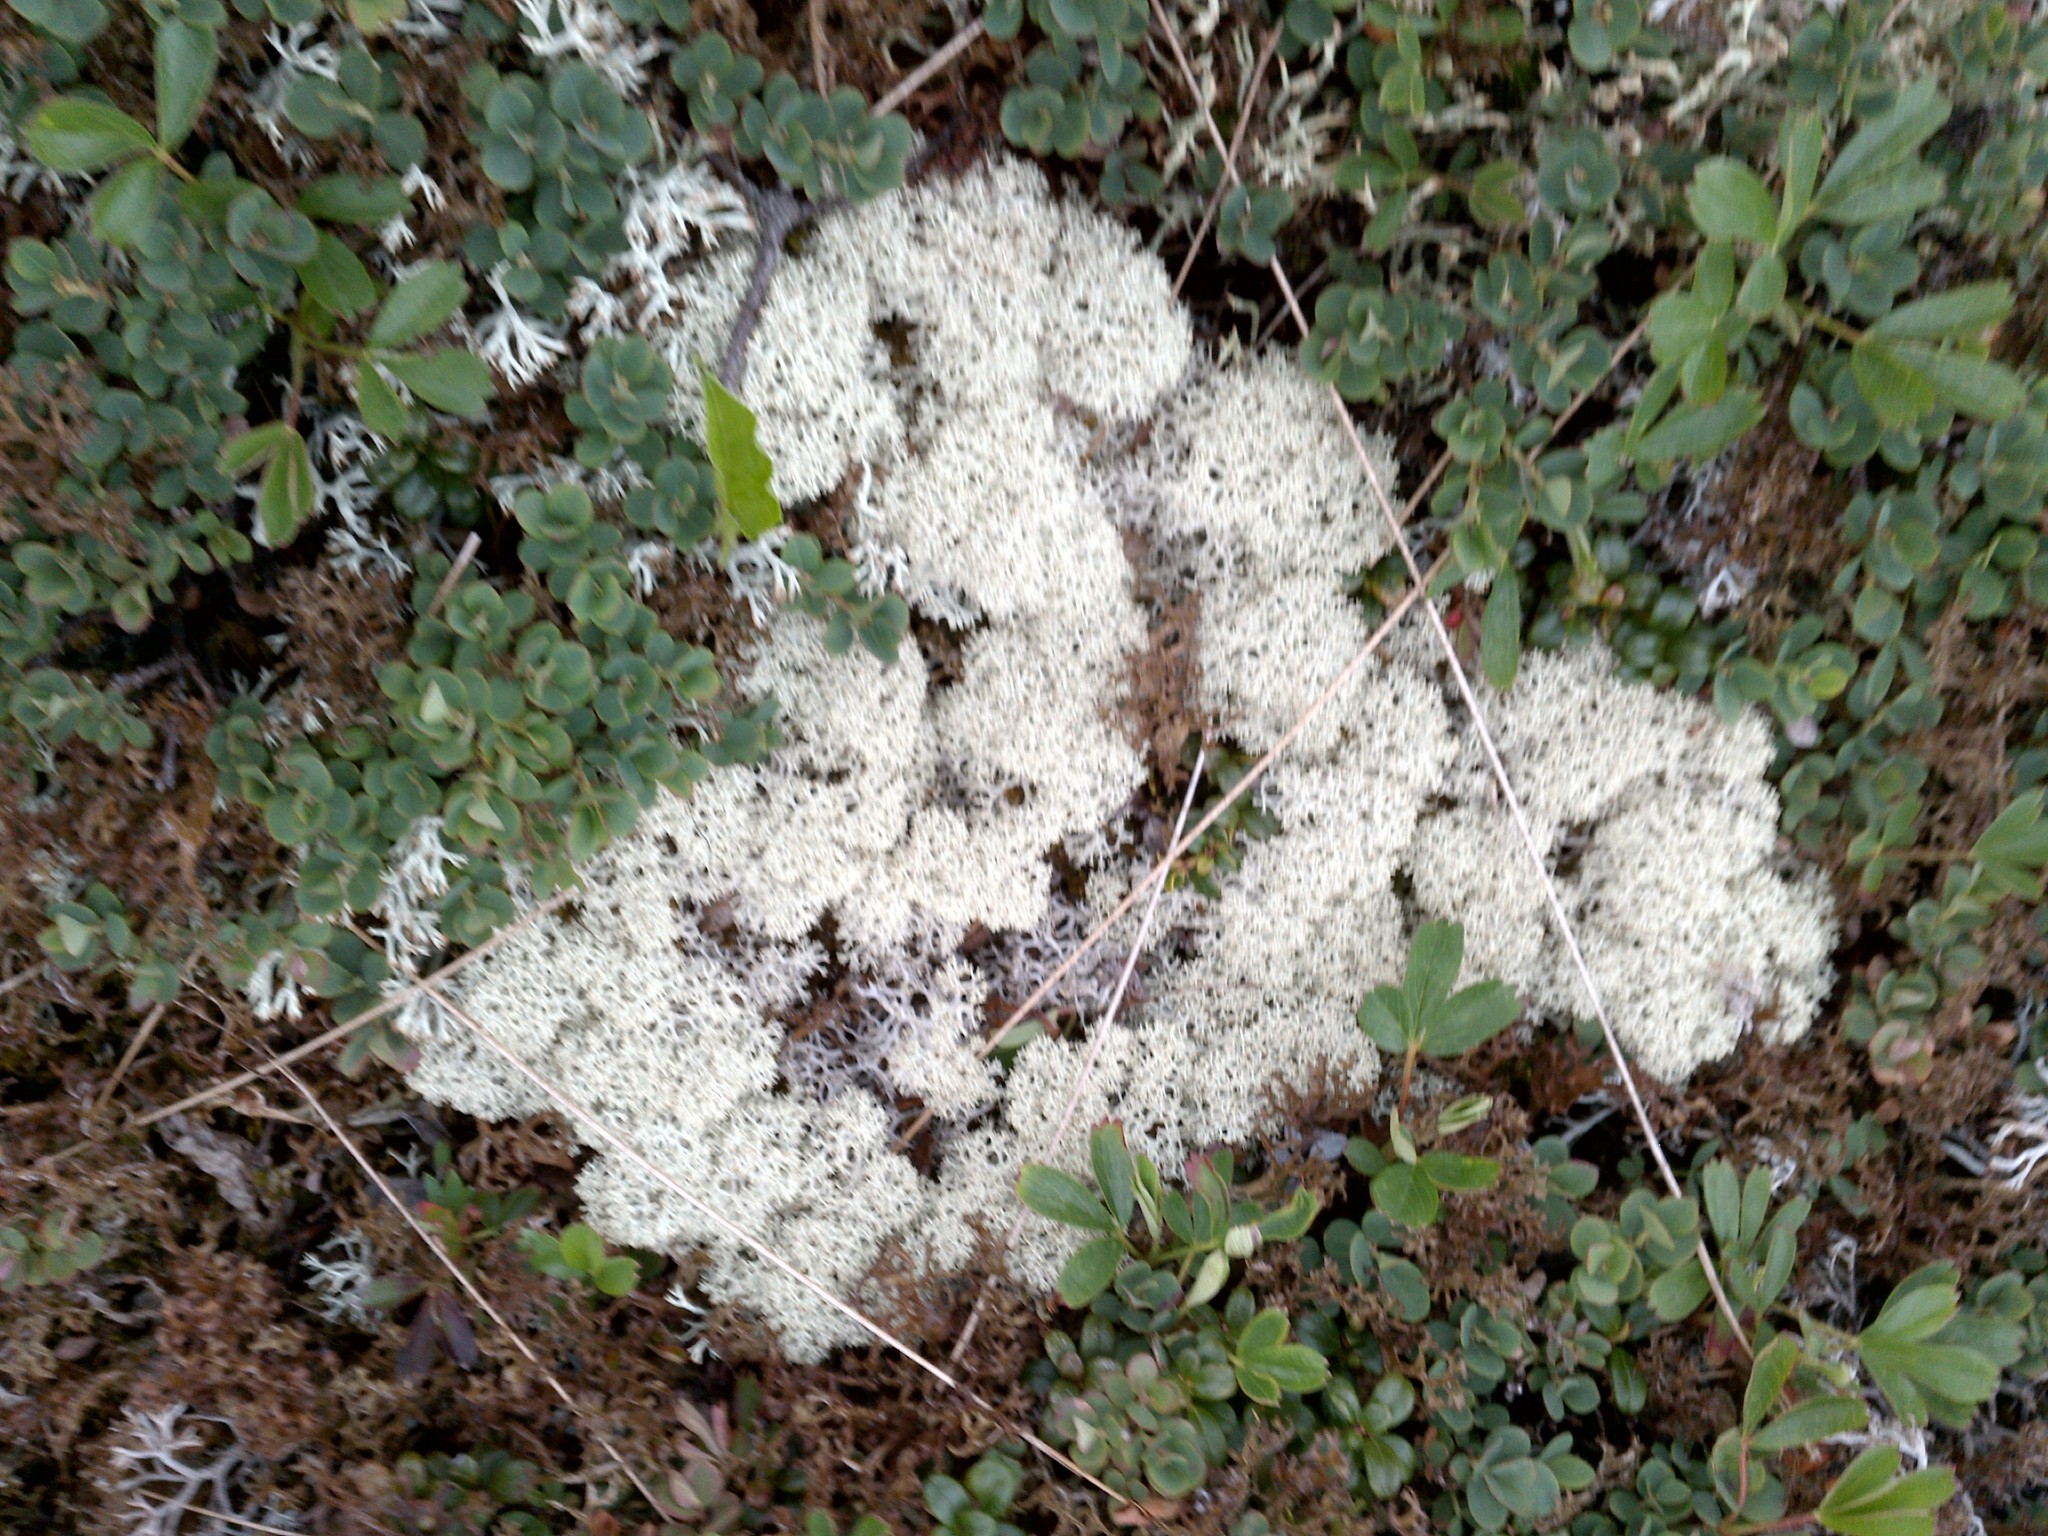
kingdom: Fungi
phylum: Ascomycota
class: Lecanoromycetes
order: Lecanorales
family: Cladoniaceae
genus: Cladonia
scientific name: Cladonia stellaris
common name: Star-tipped reindeer lichen
